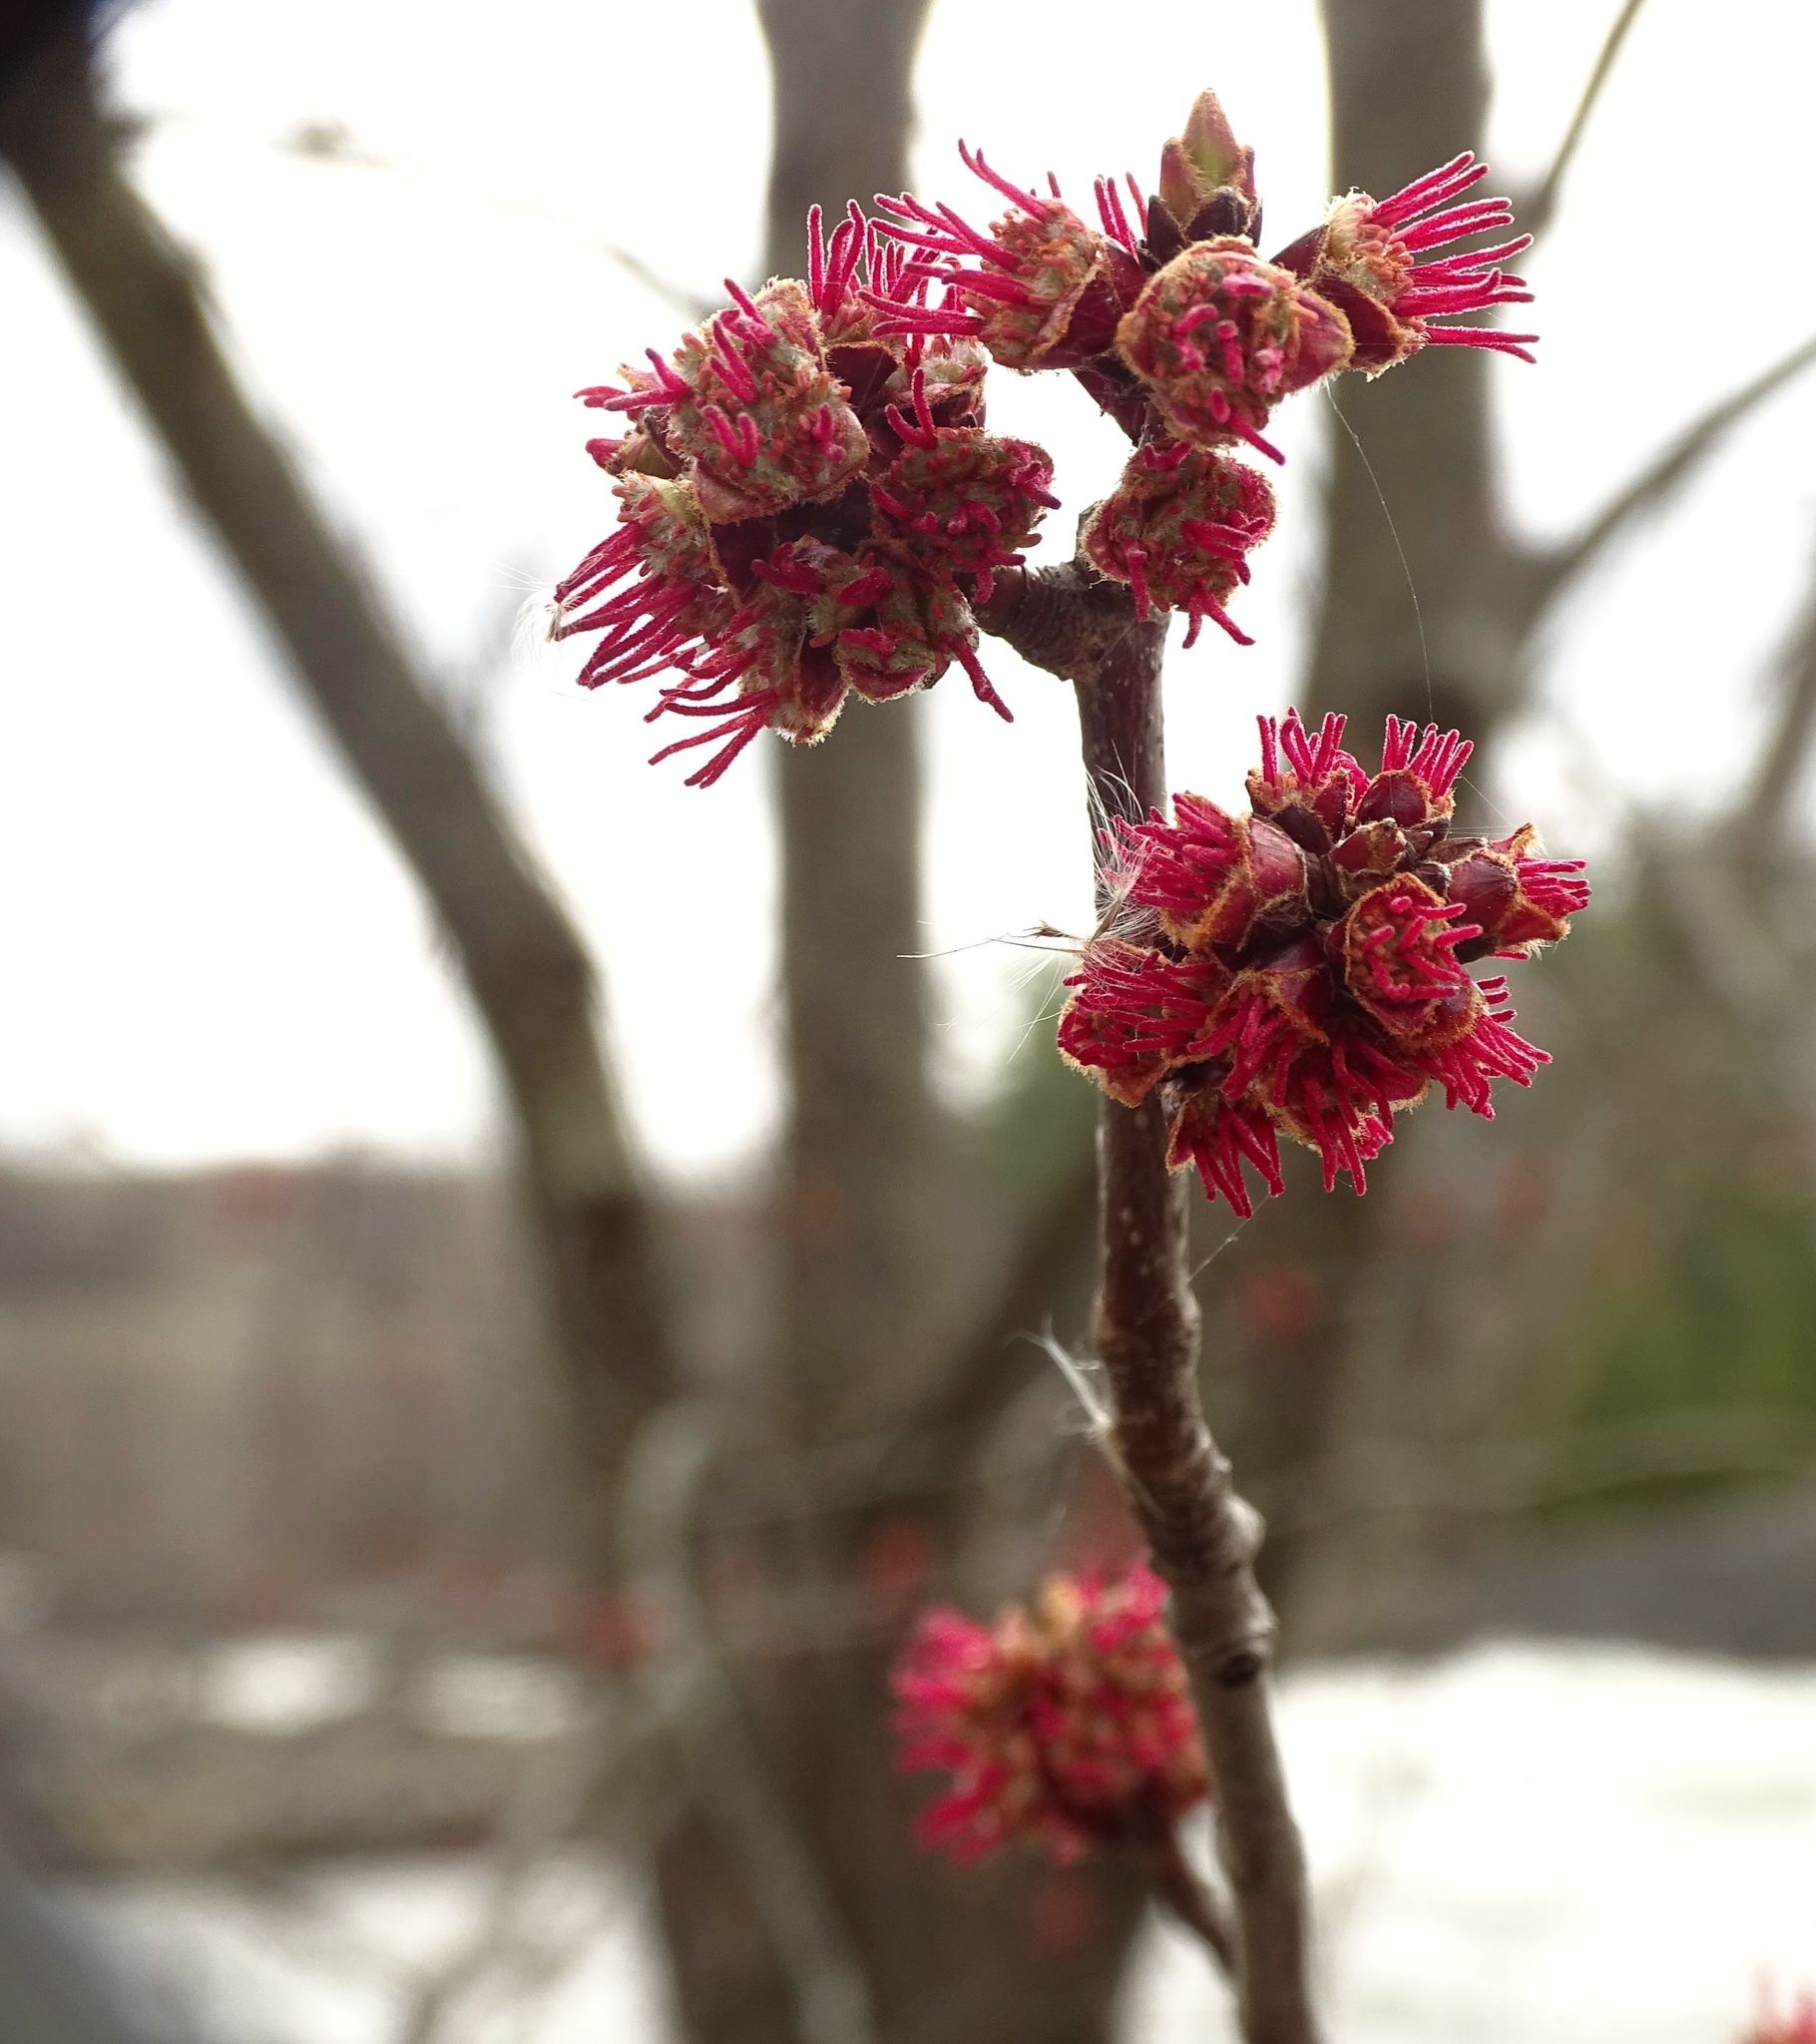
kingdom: Plantae
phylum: Tracheophyta
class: Magnoliopsida
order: Sapindales
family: Sapindaceae
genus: Acer
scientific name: Acer rubrum
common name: Red maple
